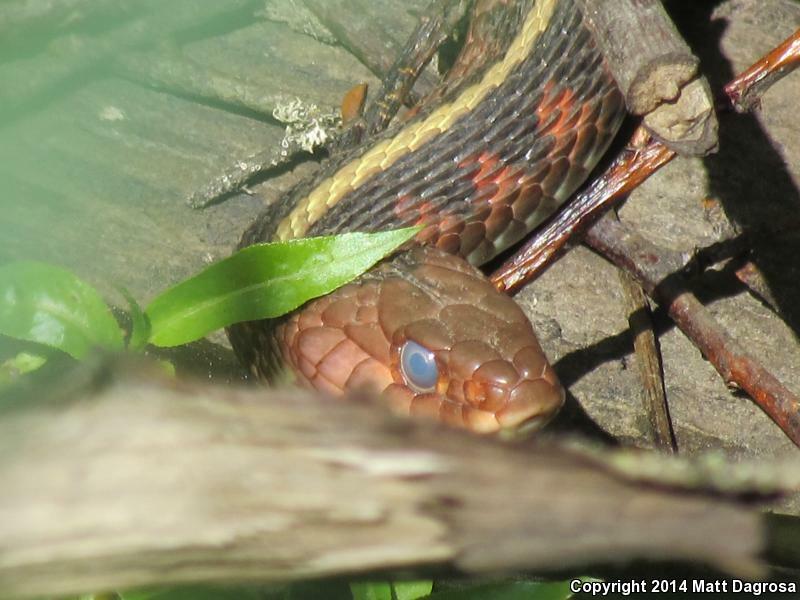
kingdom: Animalia
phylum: Chordata
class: Squamata
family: Colubridae
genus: Thamnophis
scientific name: Thamnophis sirtalis
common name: Common garter snake
